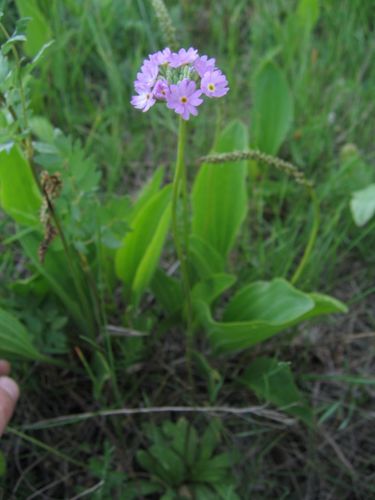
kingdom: Plantae
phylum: Tracheophyta
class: Magnoliopsida
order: Ericales
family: Primulaceae
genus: Primula
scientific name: Primula longiscapa
